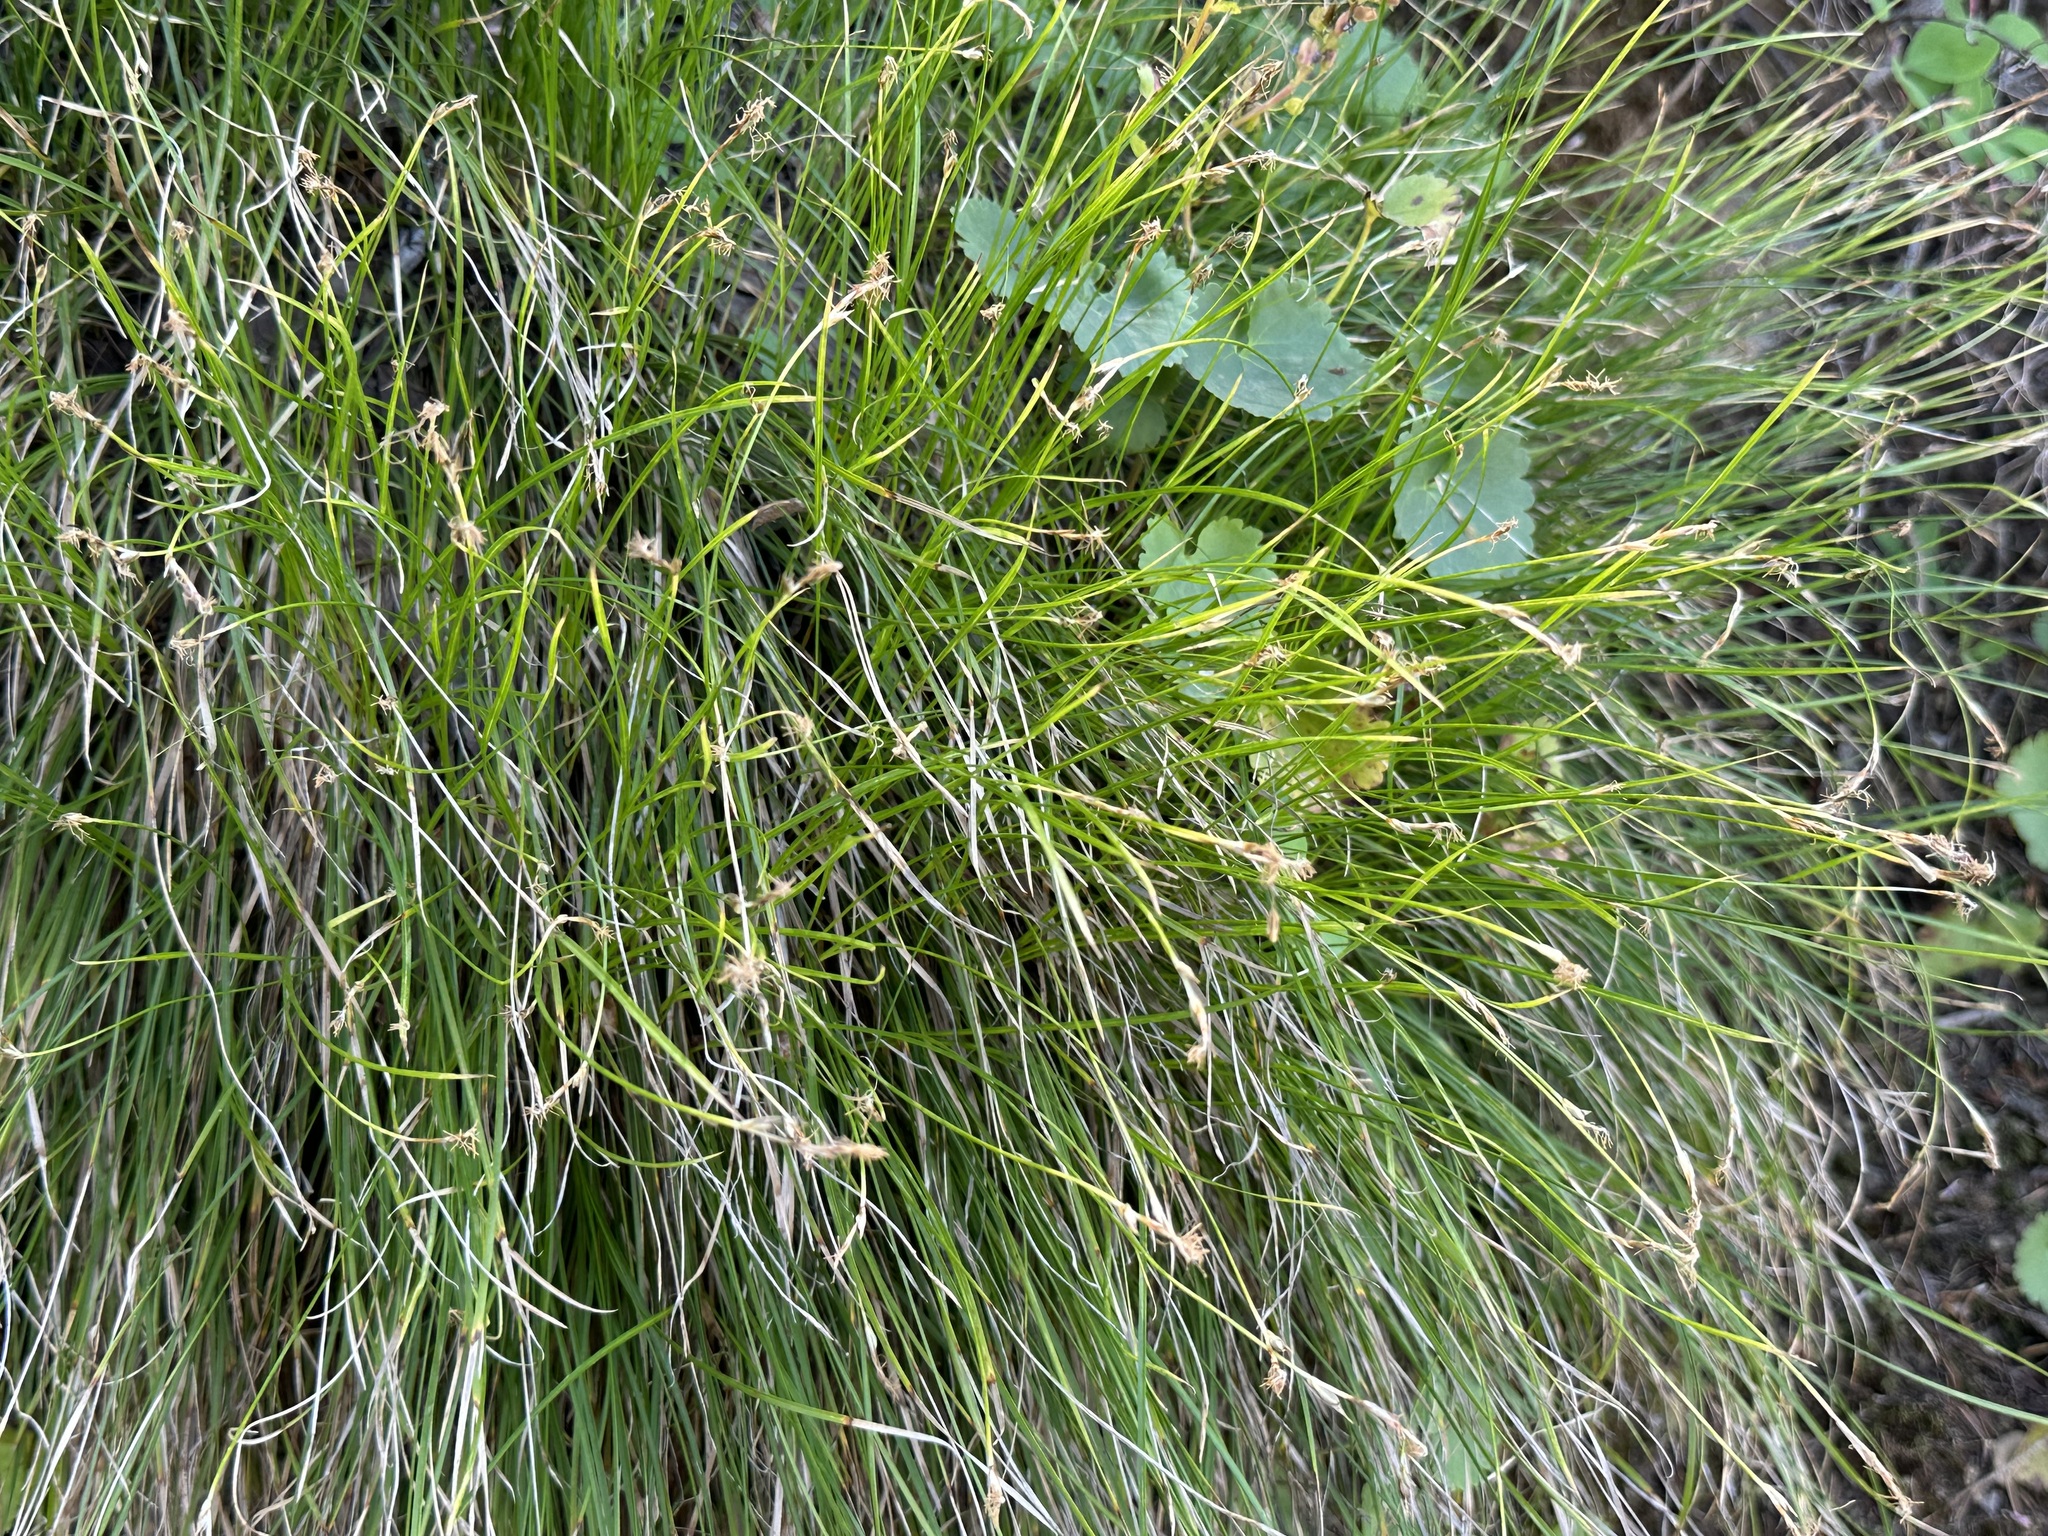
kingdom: Plantae
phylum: Tracheophyta
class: Liliopsida
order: Poales
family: Cyperaceae
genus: Carex
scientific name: Carex filifolia
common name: Threadleaf sedge
